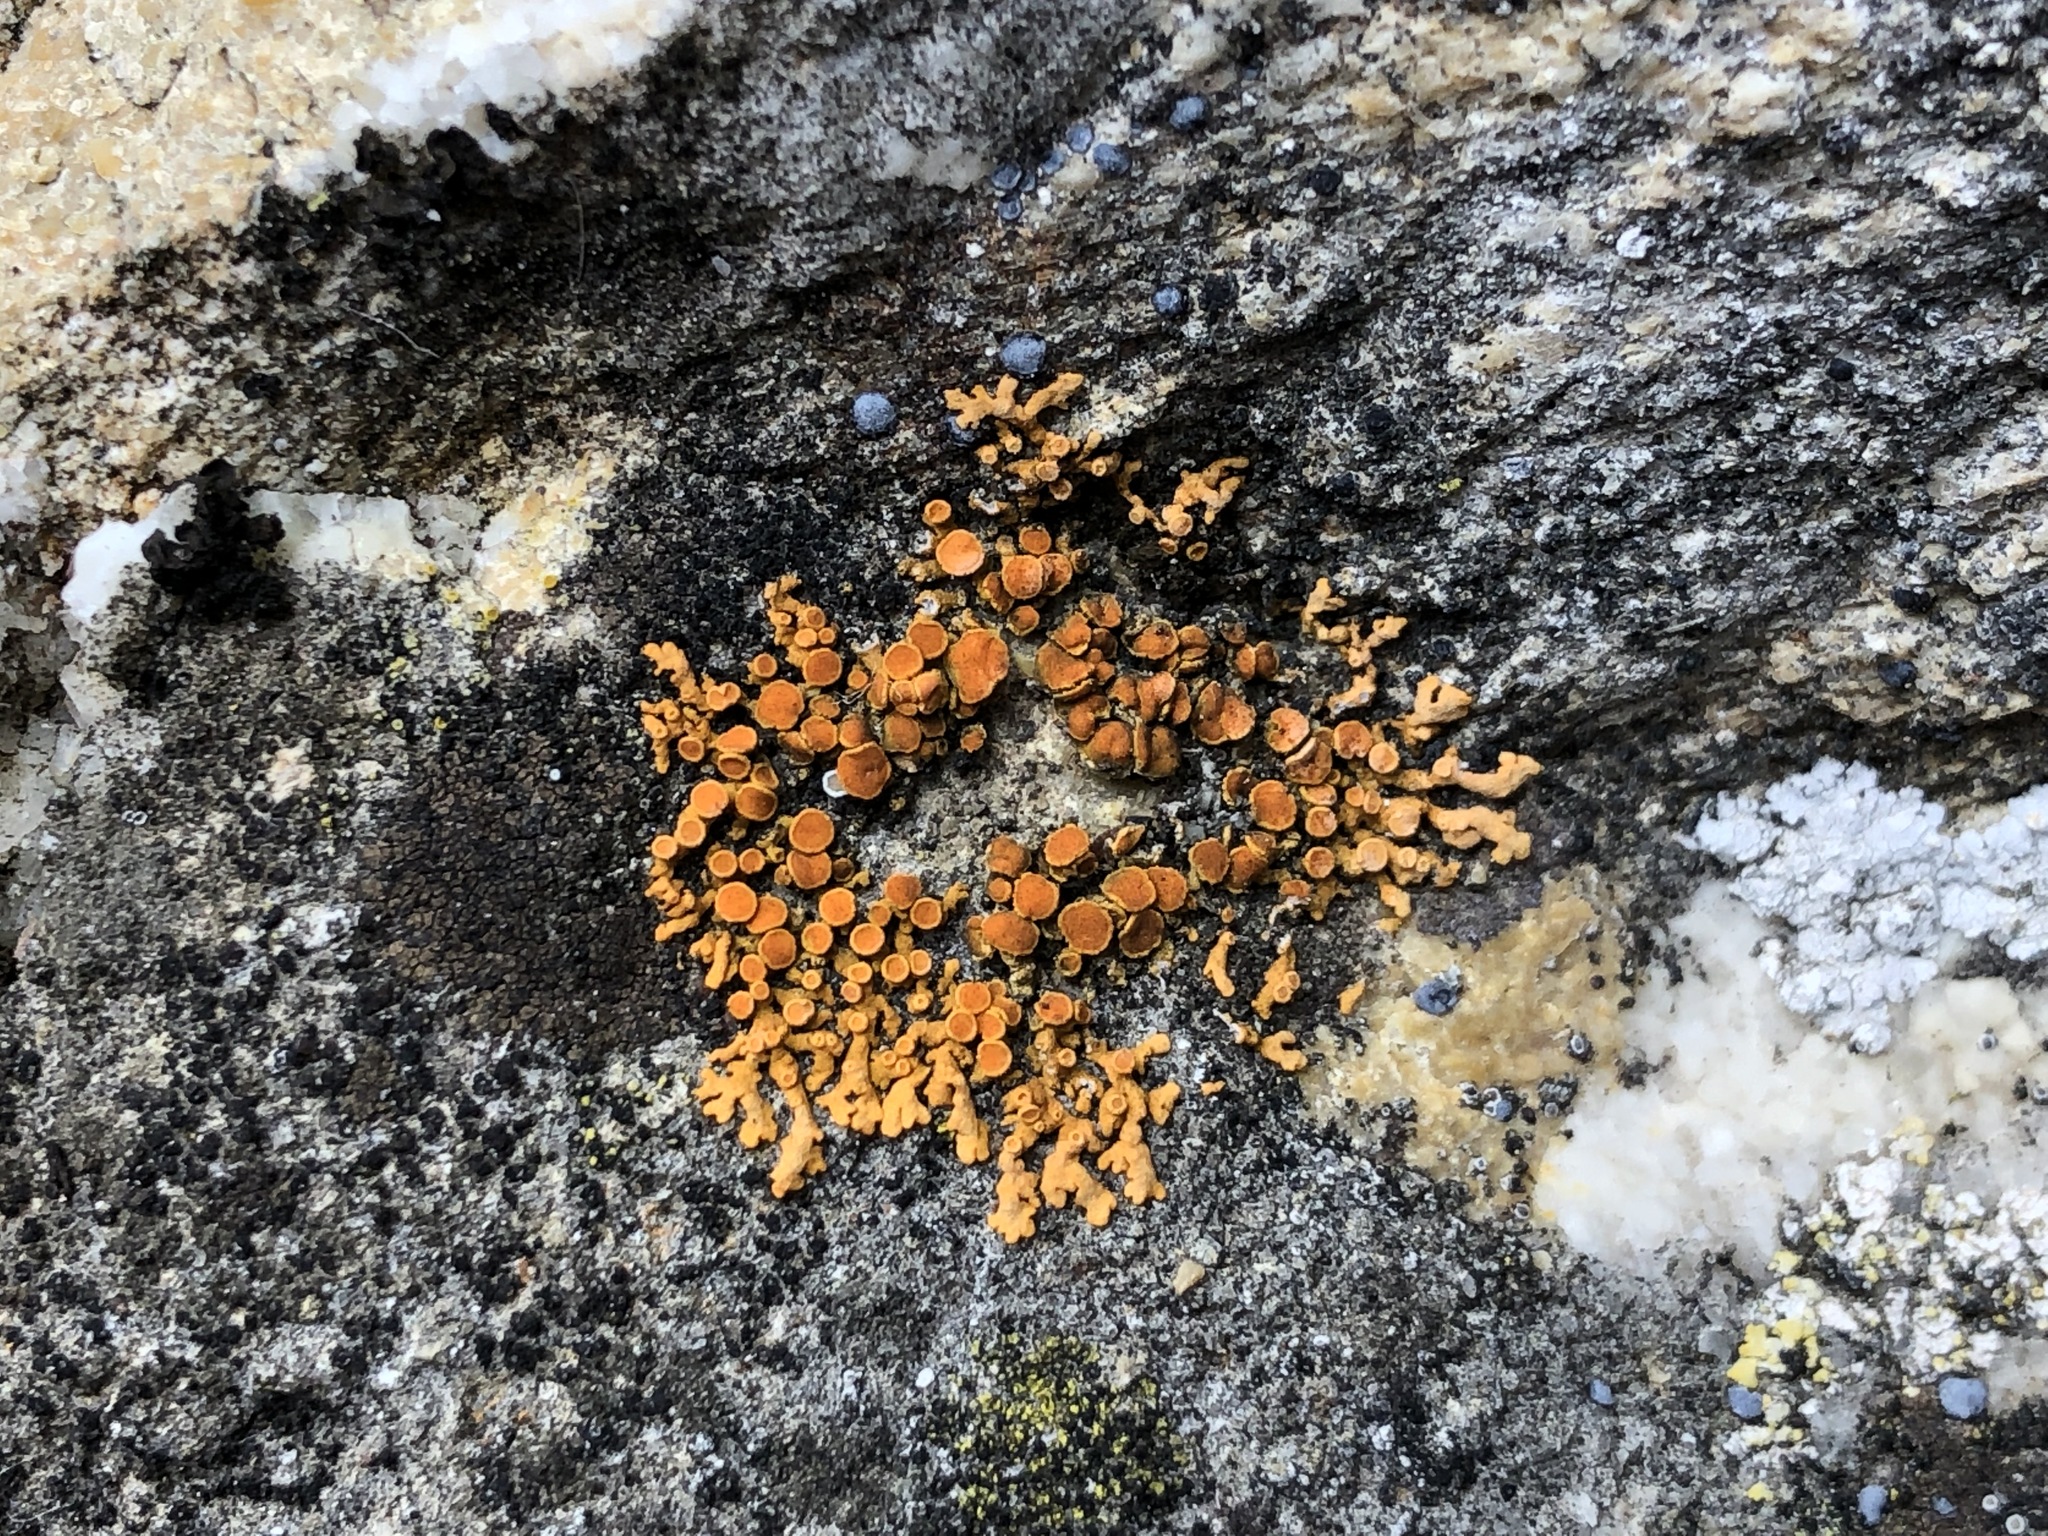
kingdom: Fungi
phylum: Ascomycota
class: Lecanoromycetes
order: Teloschistales
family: Teloschistaceae
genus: Xanthoria
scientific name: Xanthoria elegans
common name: Elegant sunburst lichen
